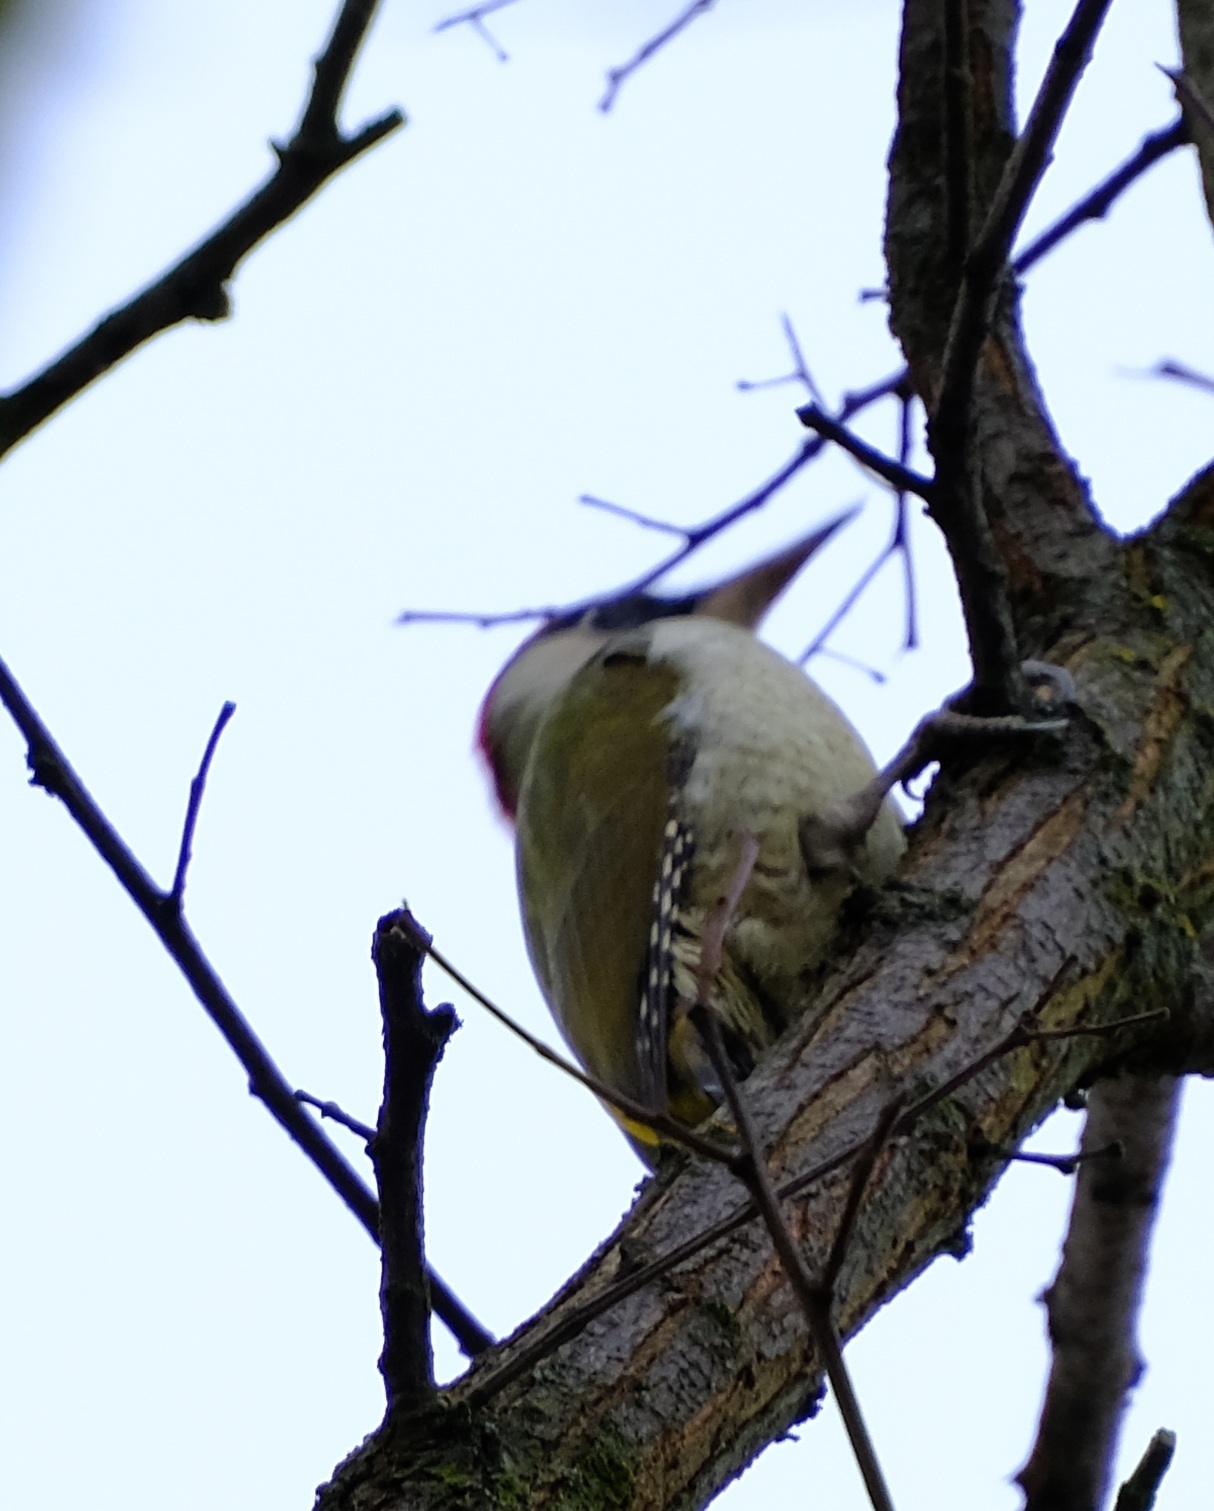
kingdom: Animalia
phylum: Chordata
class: Aves
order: Piciformes
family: Picidae
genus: Picus
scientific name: Picus viridis
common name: European green woodpecker
